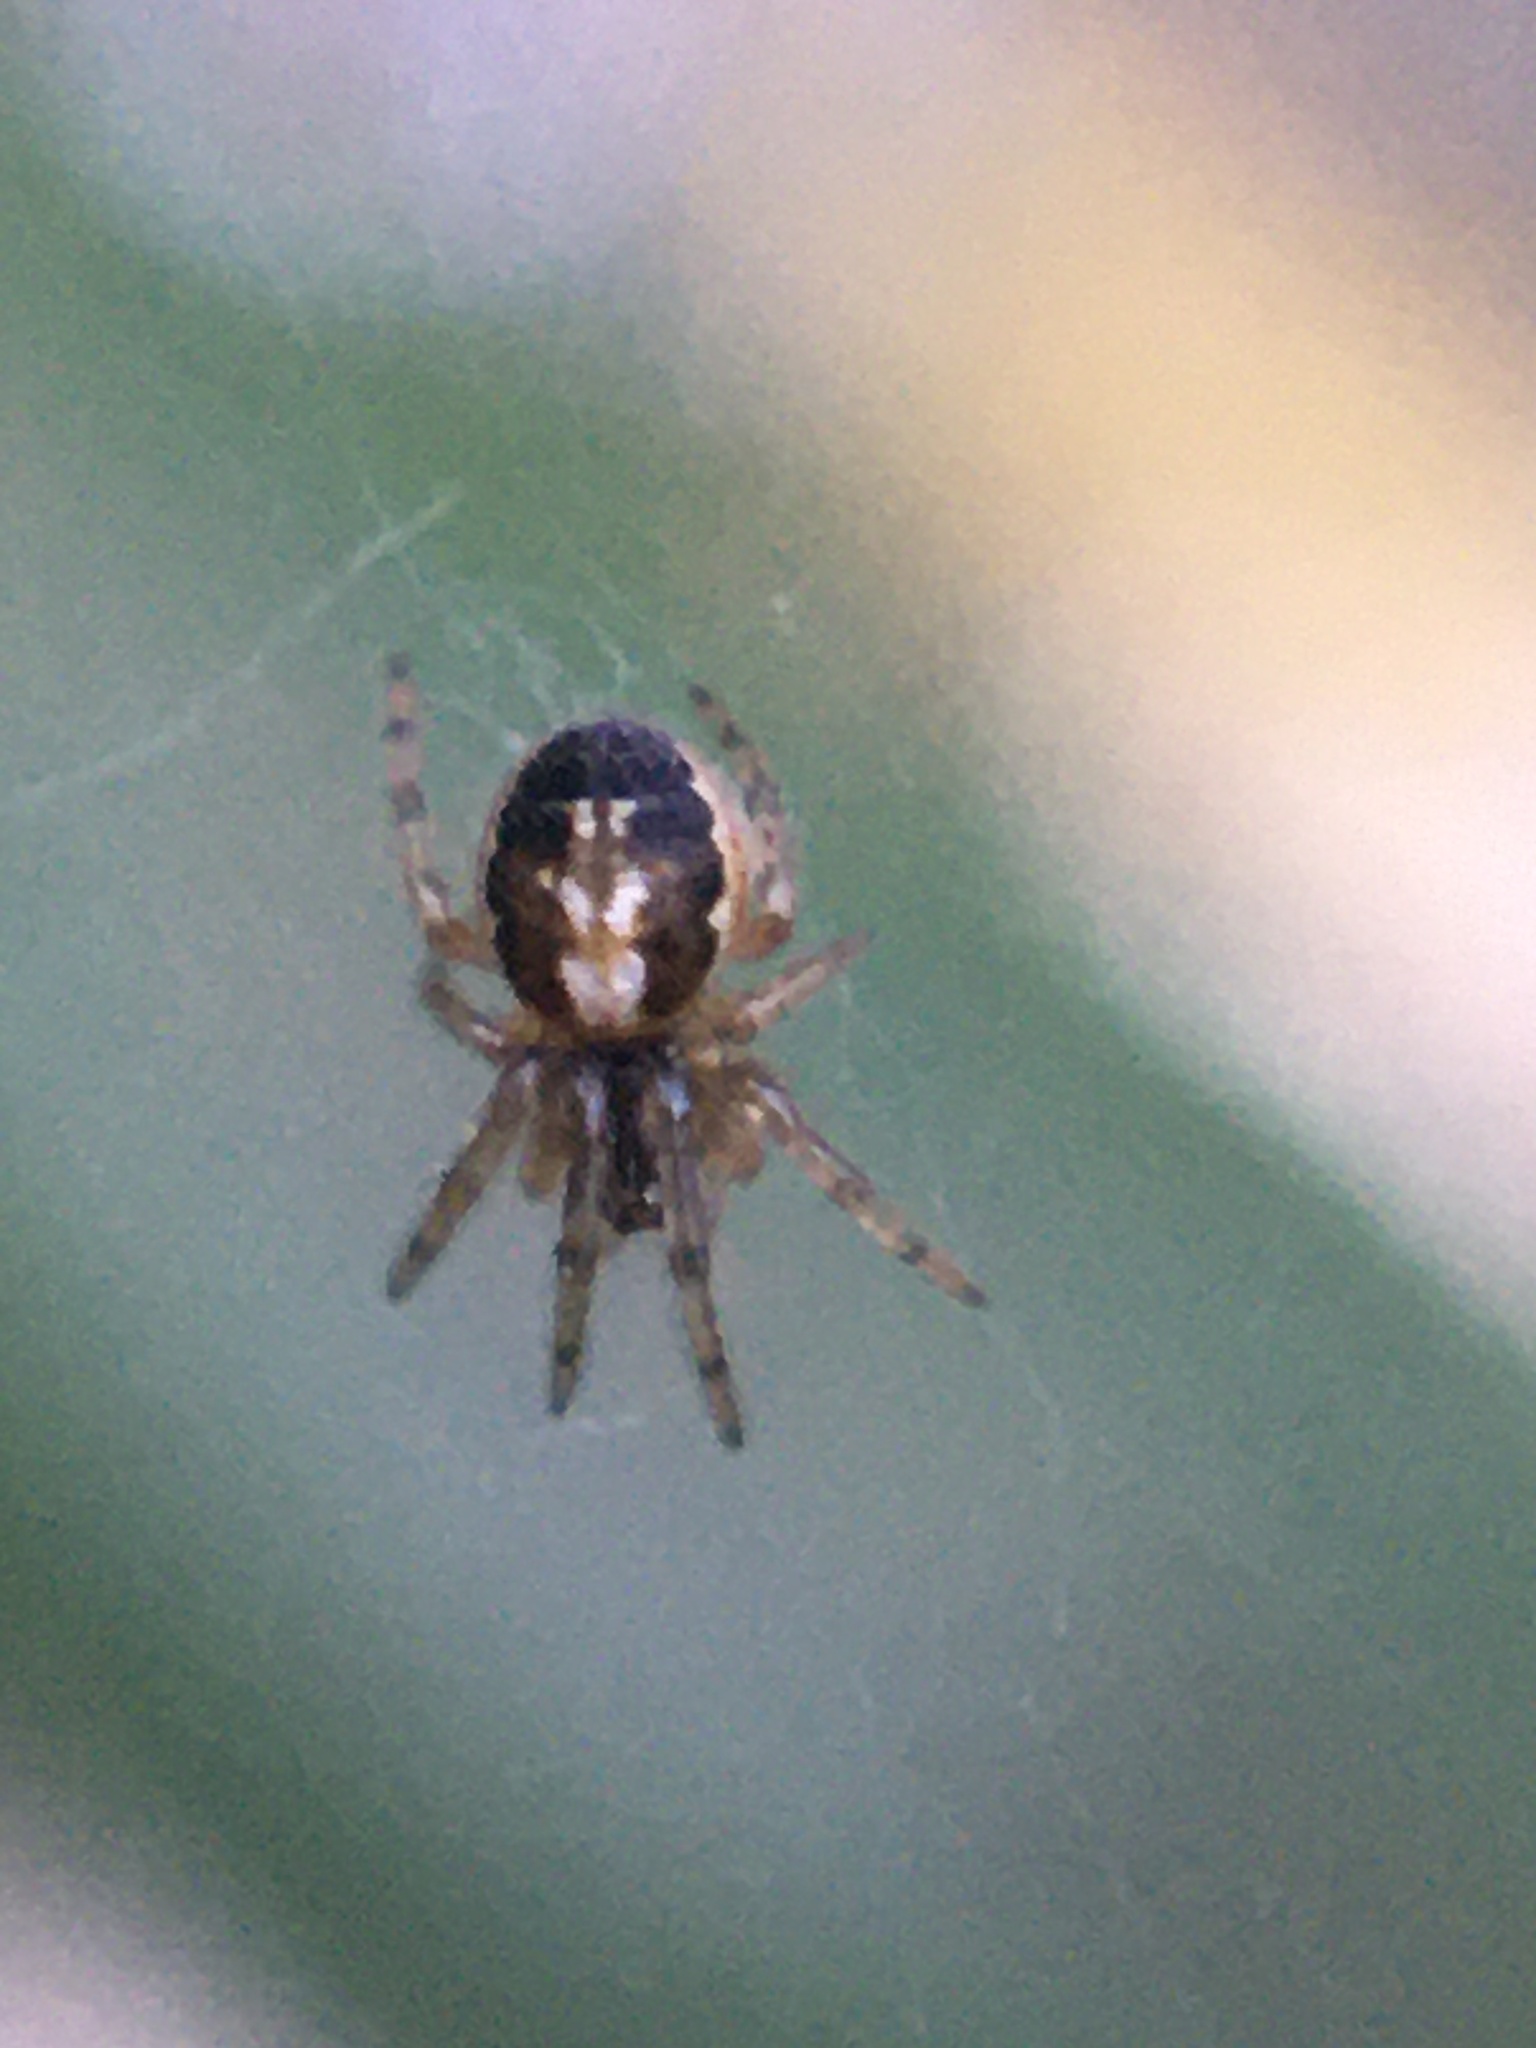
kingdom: Animalia
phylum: Arthropoda
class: Arachnida
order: Araneae
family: Araneidae
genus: Zygiella
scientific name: Zygiella
